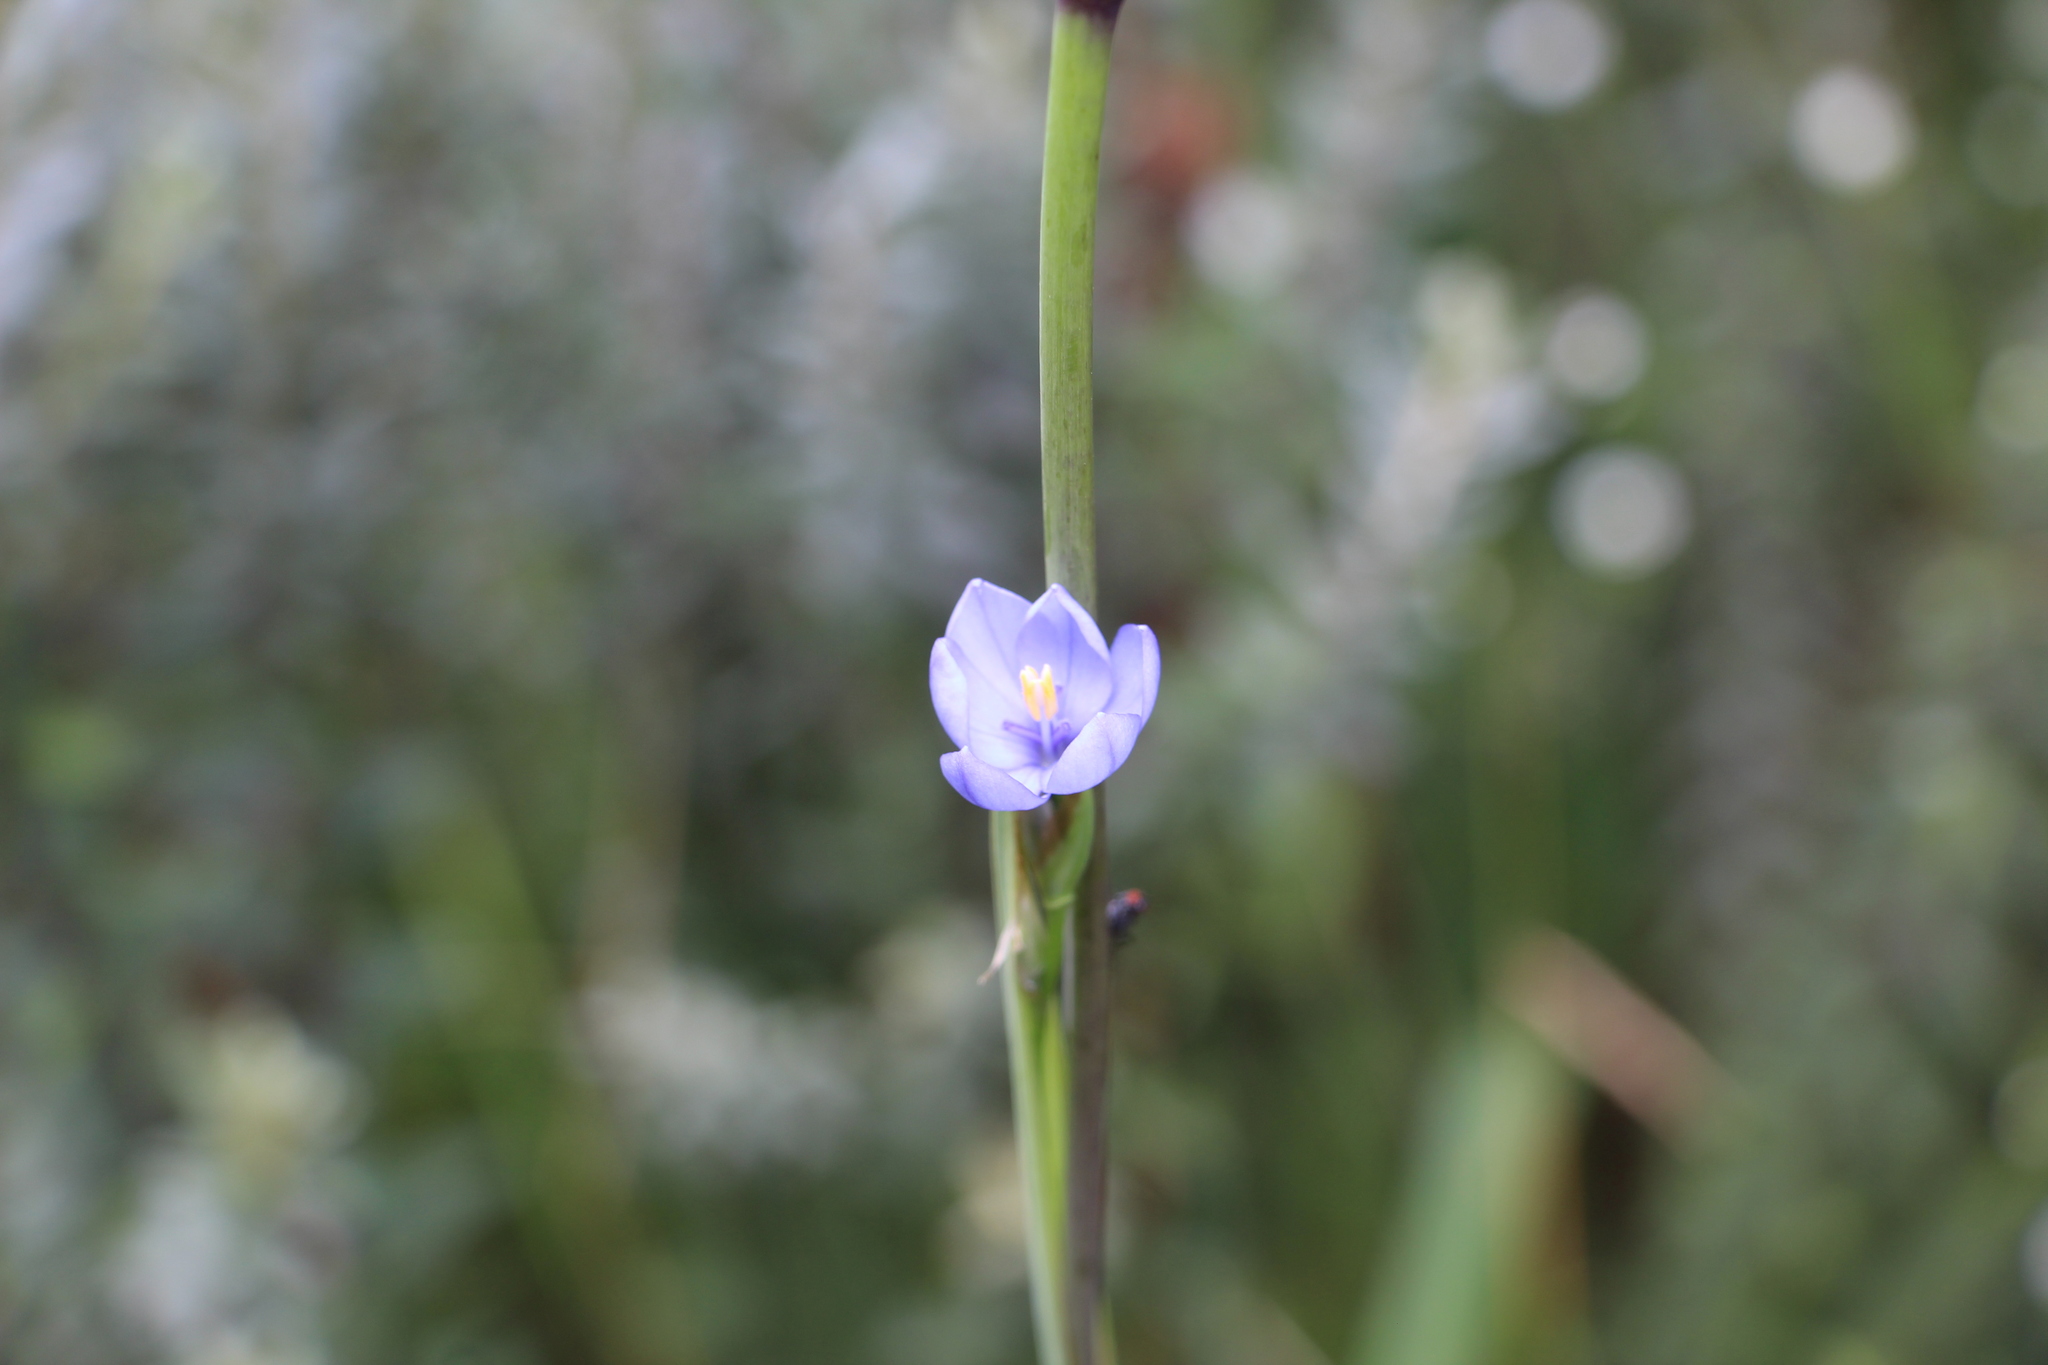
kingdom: Plantae
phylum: Tracheophyta
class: Liliopsida
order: Asparagales
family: Iridaceae
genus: Orthrosanthus
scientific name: Orthrosanthus chimboracensis
